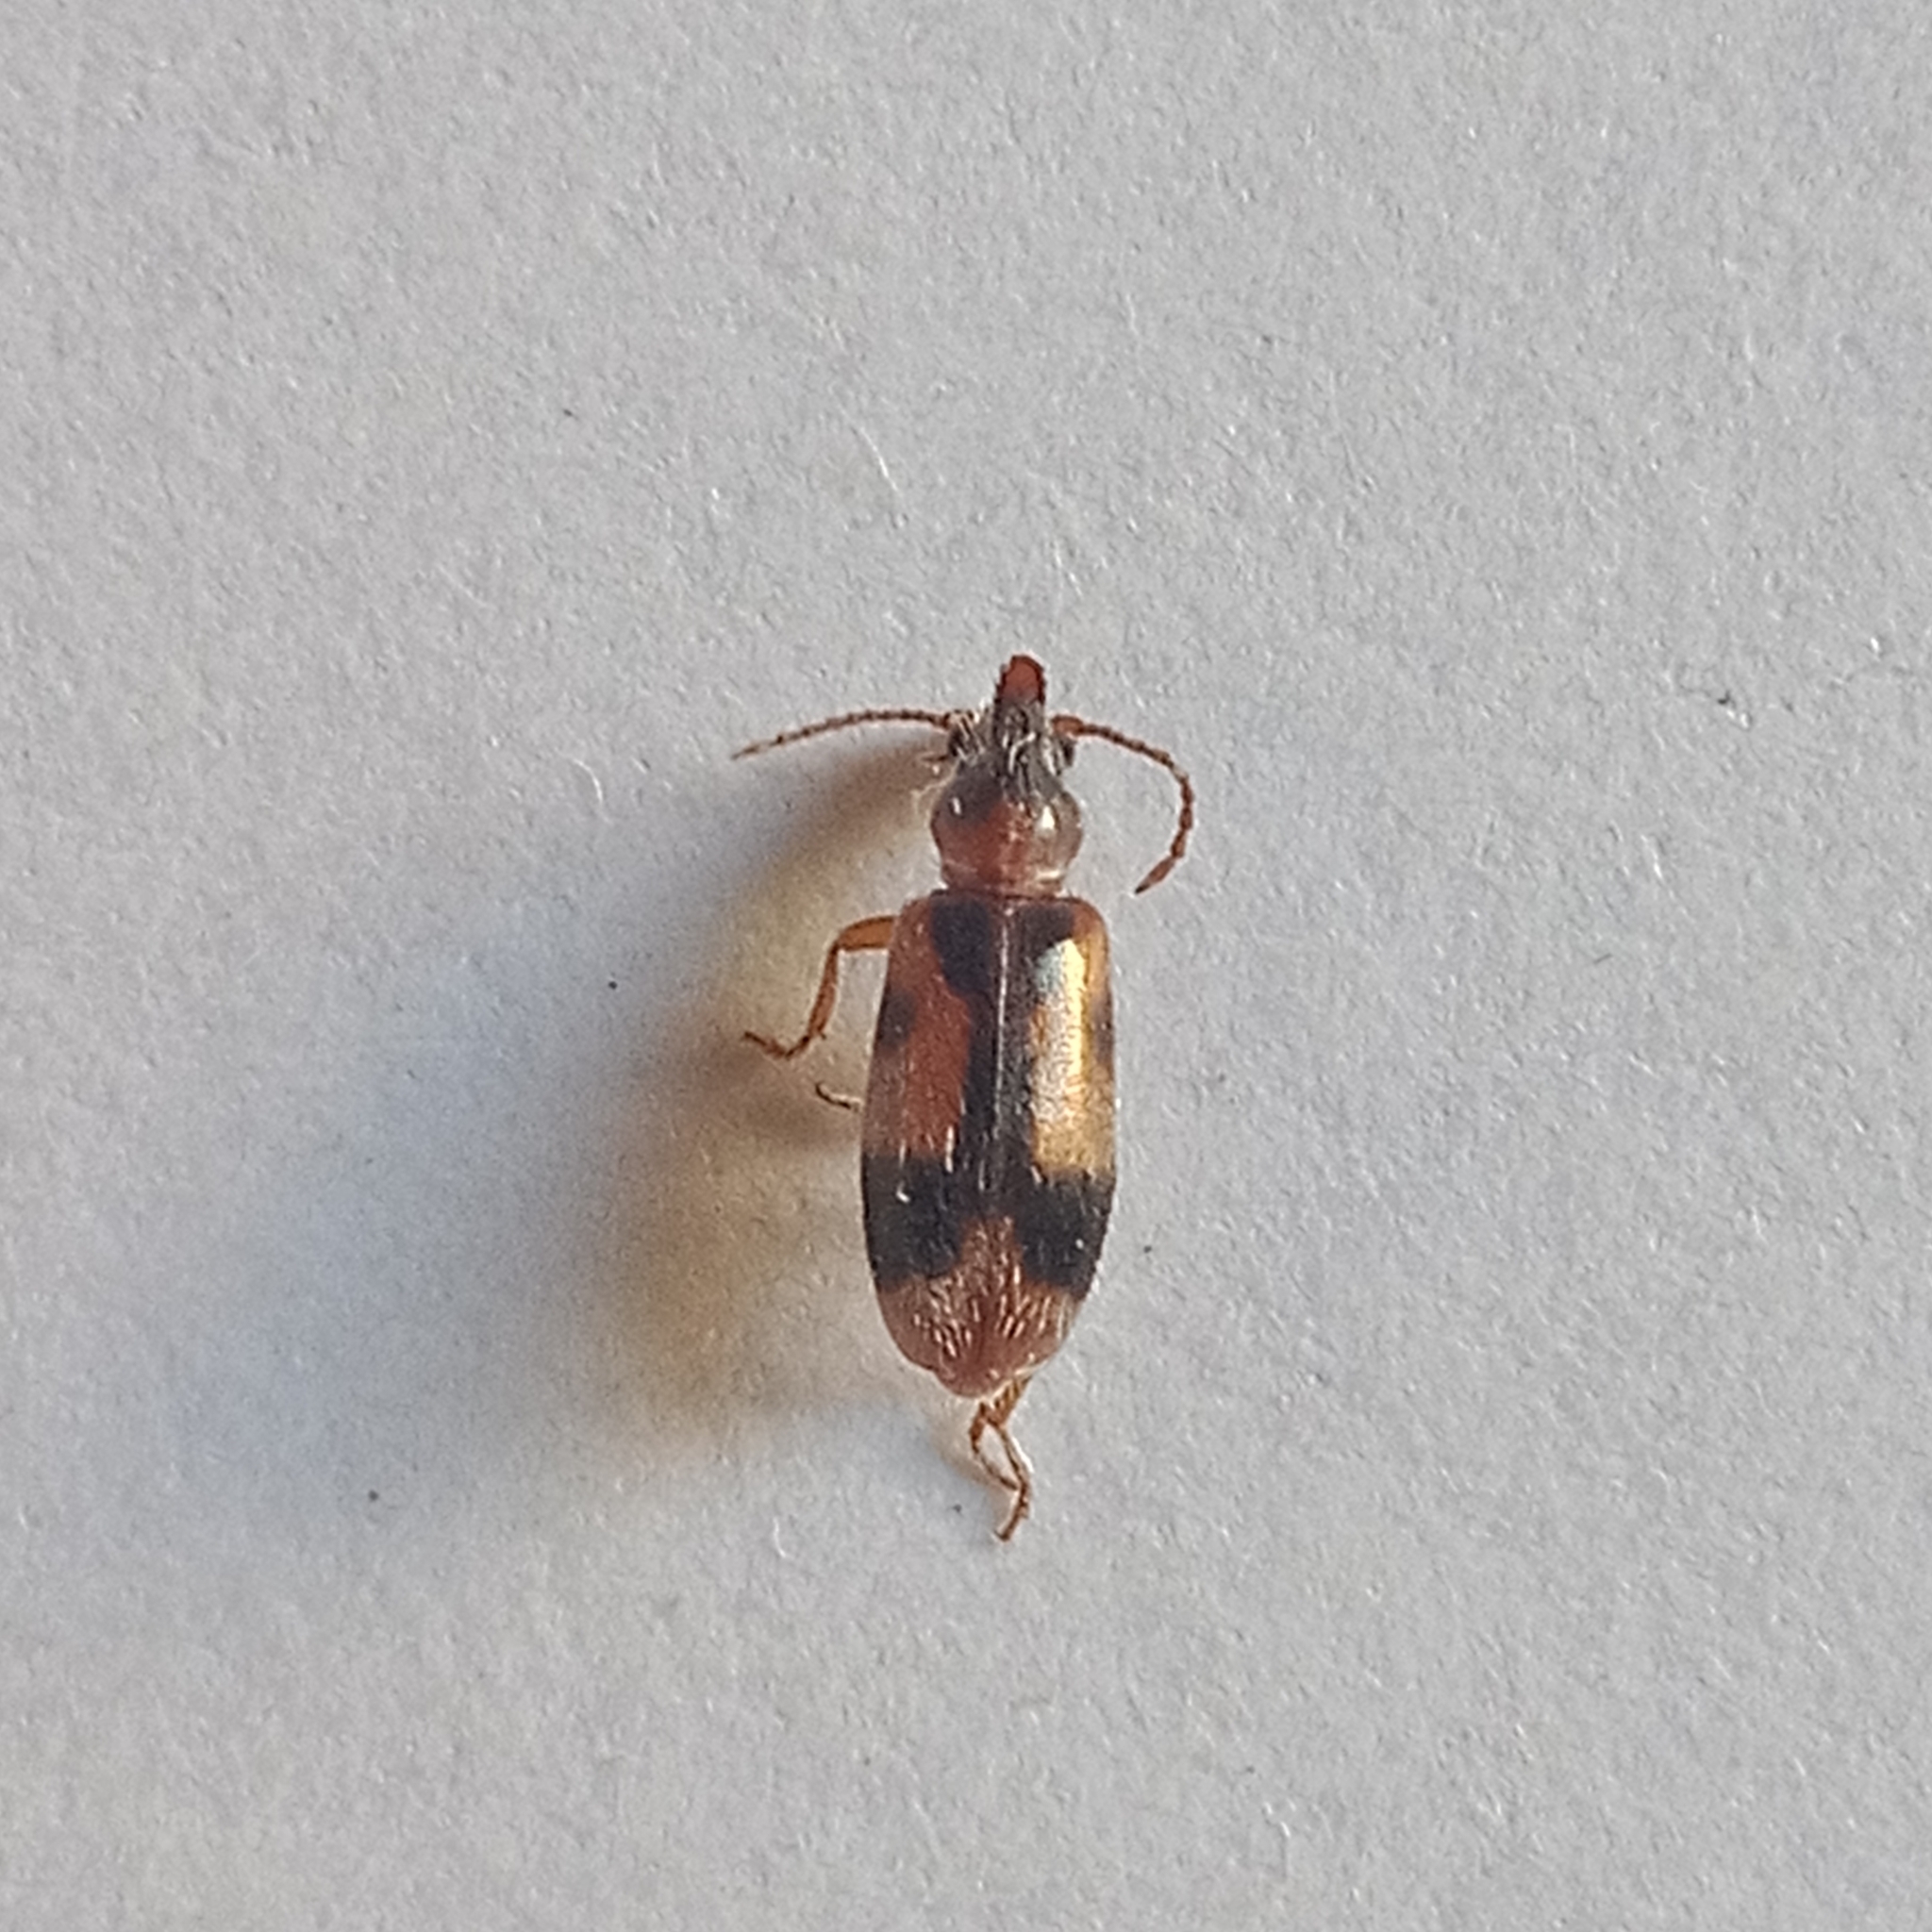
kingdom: Animalia
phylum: Arthropoda
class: Insecta
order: Coleoptera
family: Anthicidae
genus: Notoxus
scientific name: Notoxus monoceros
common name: Monoceros beetle
